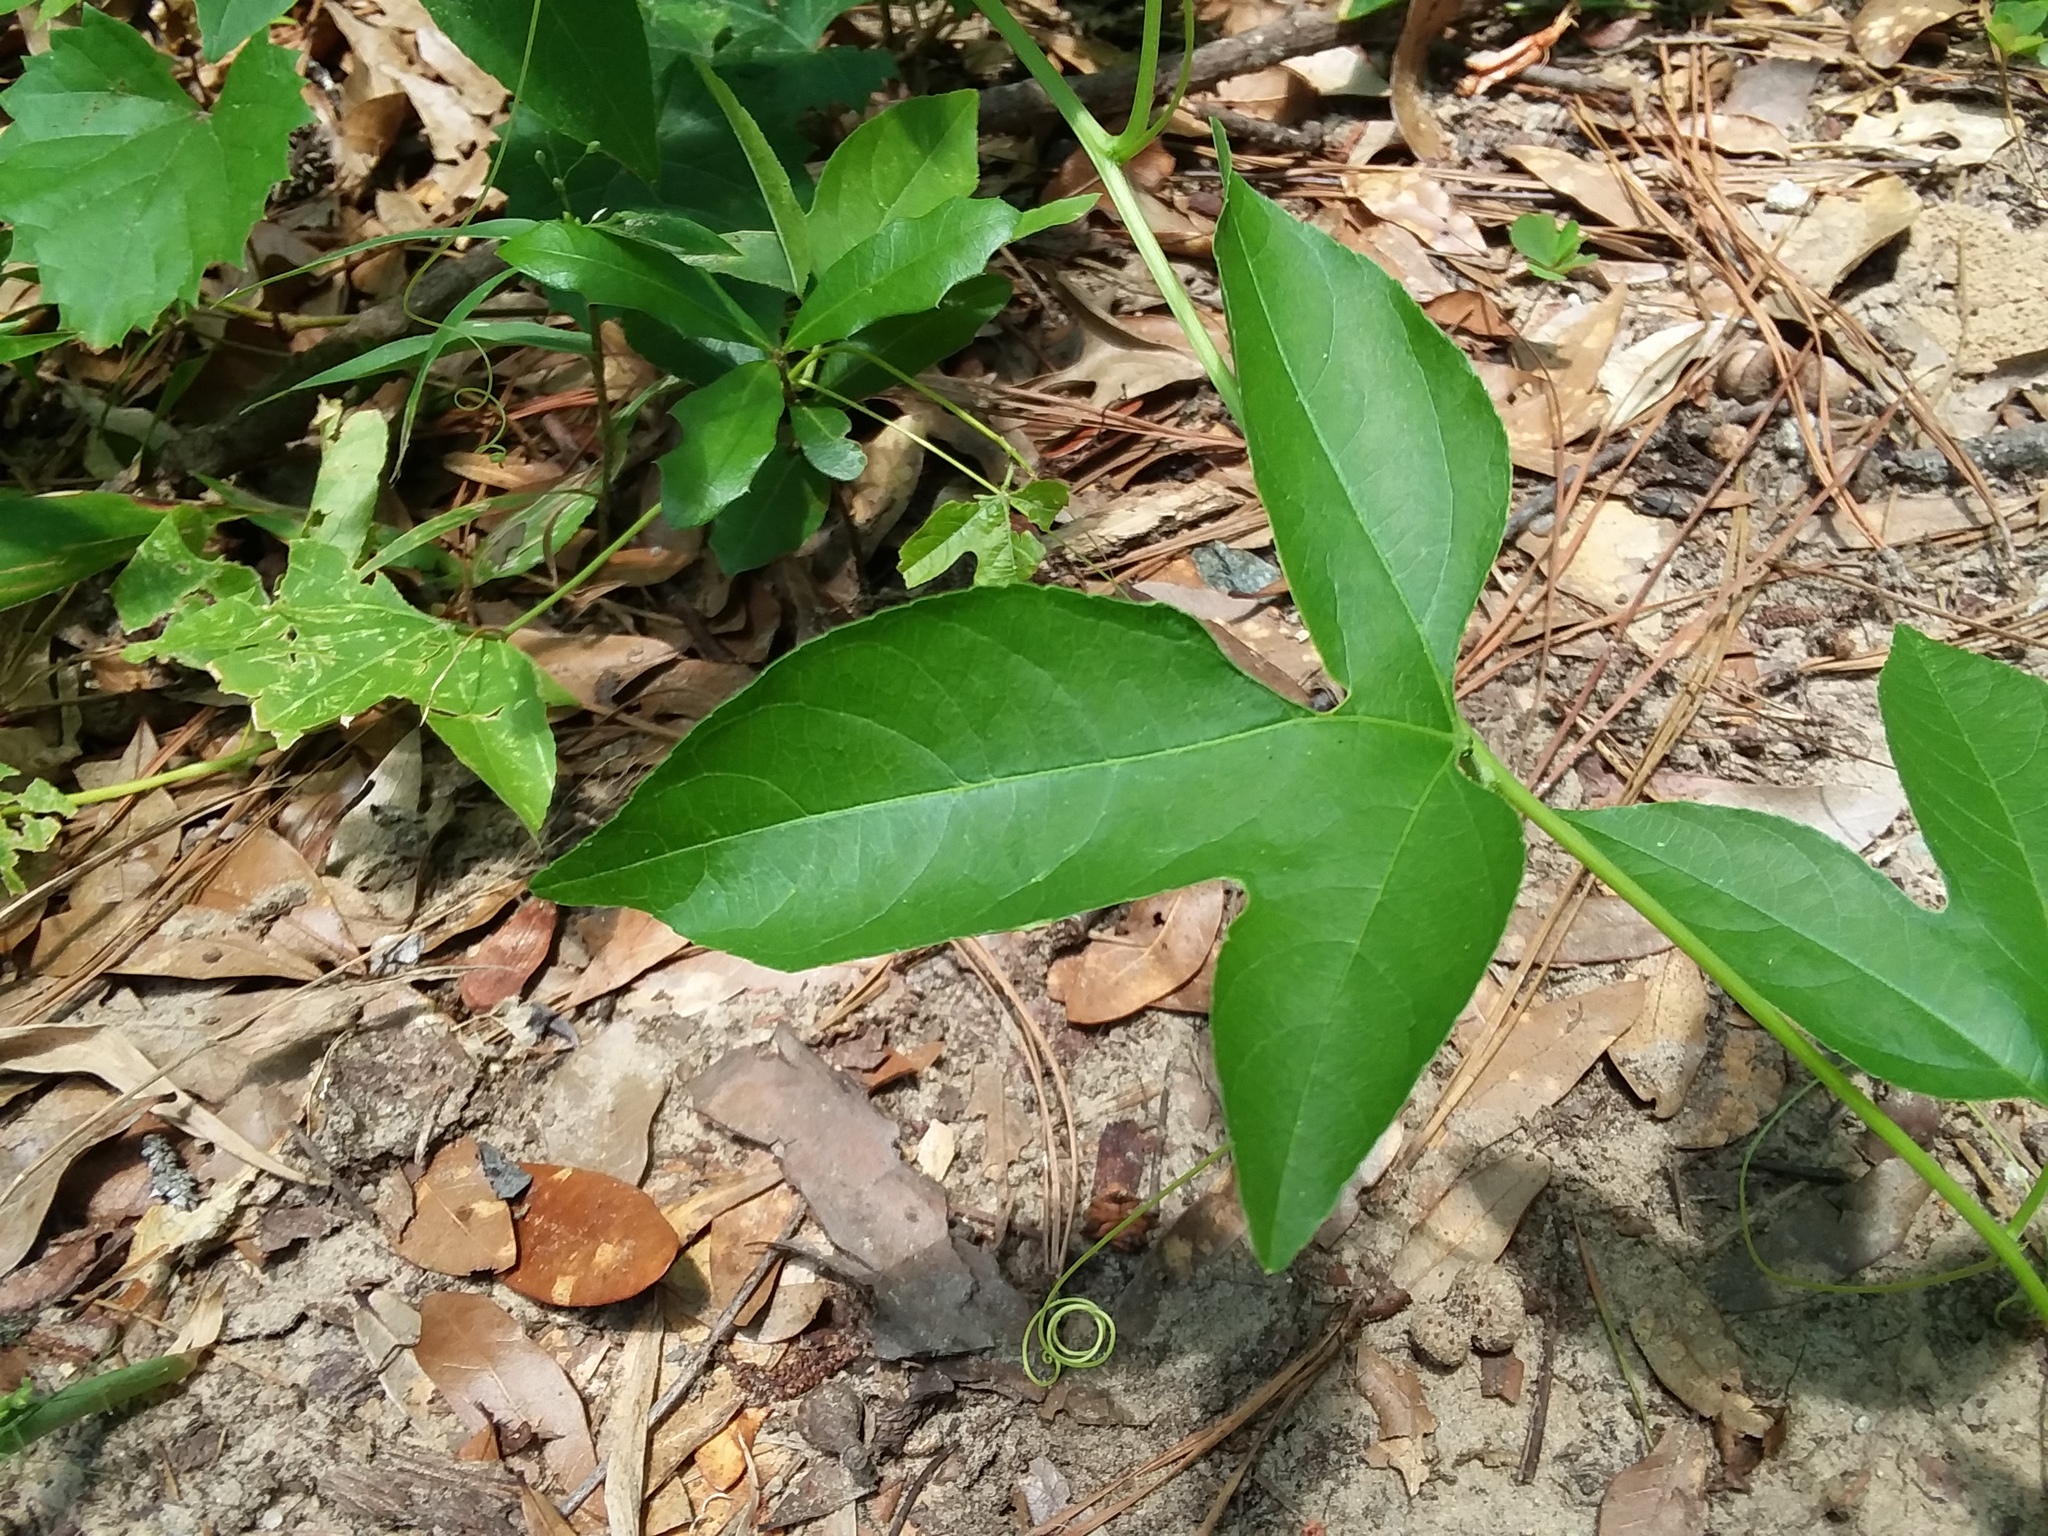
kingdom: Plantae
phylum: Tracheophyta
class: Magnoliopsida
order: Malpighiales
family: Passifloraceae
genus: Passiflora
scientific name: Passiflora incarnata
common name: Apricot-vine
